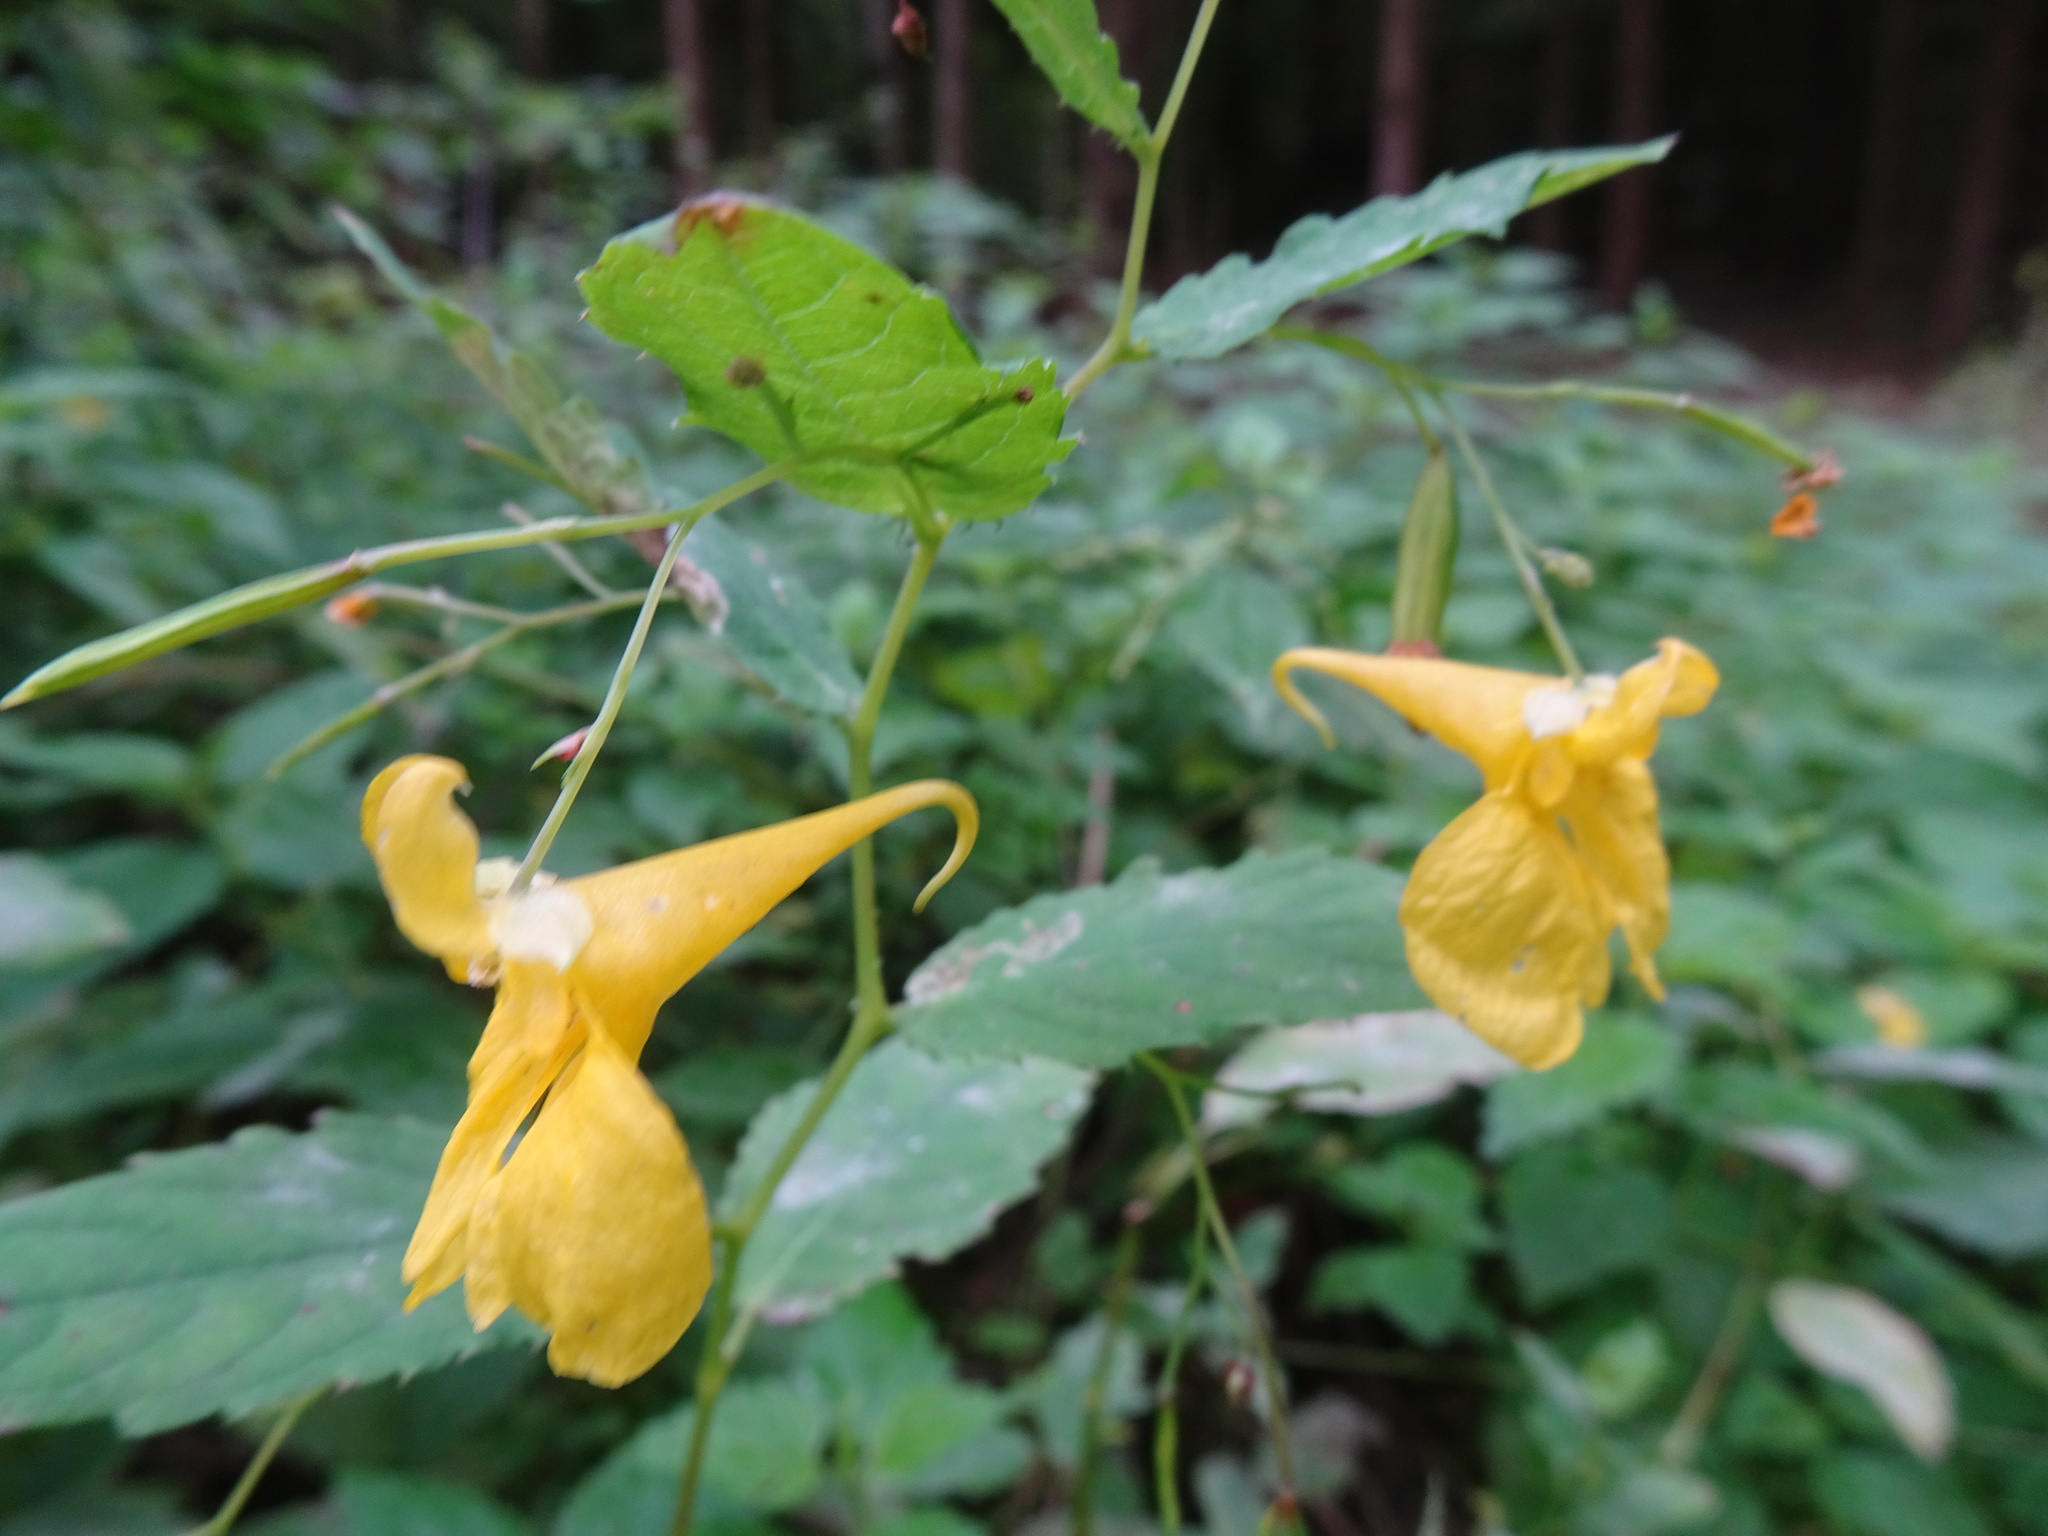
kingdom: Plantae
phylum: Tracheophyta
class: Magnoliopsida
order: Ericales
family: Balsaminaceae
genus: Impatiens
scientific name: Impatiens noli-tangere
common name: Touch-me-not balsam
